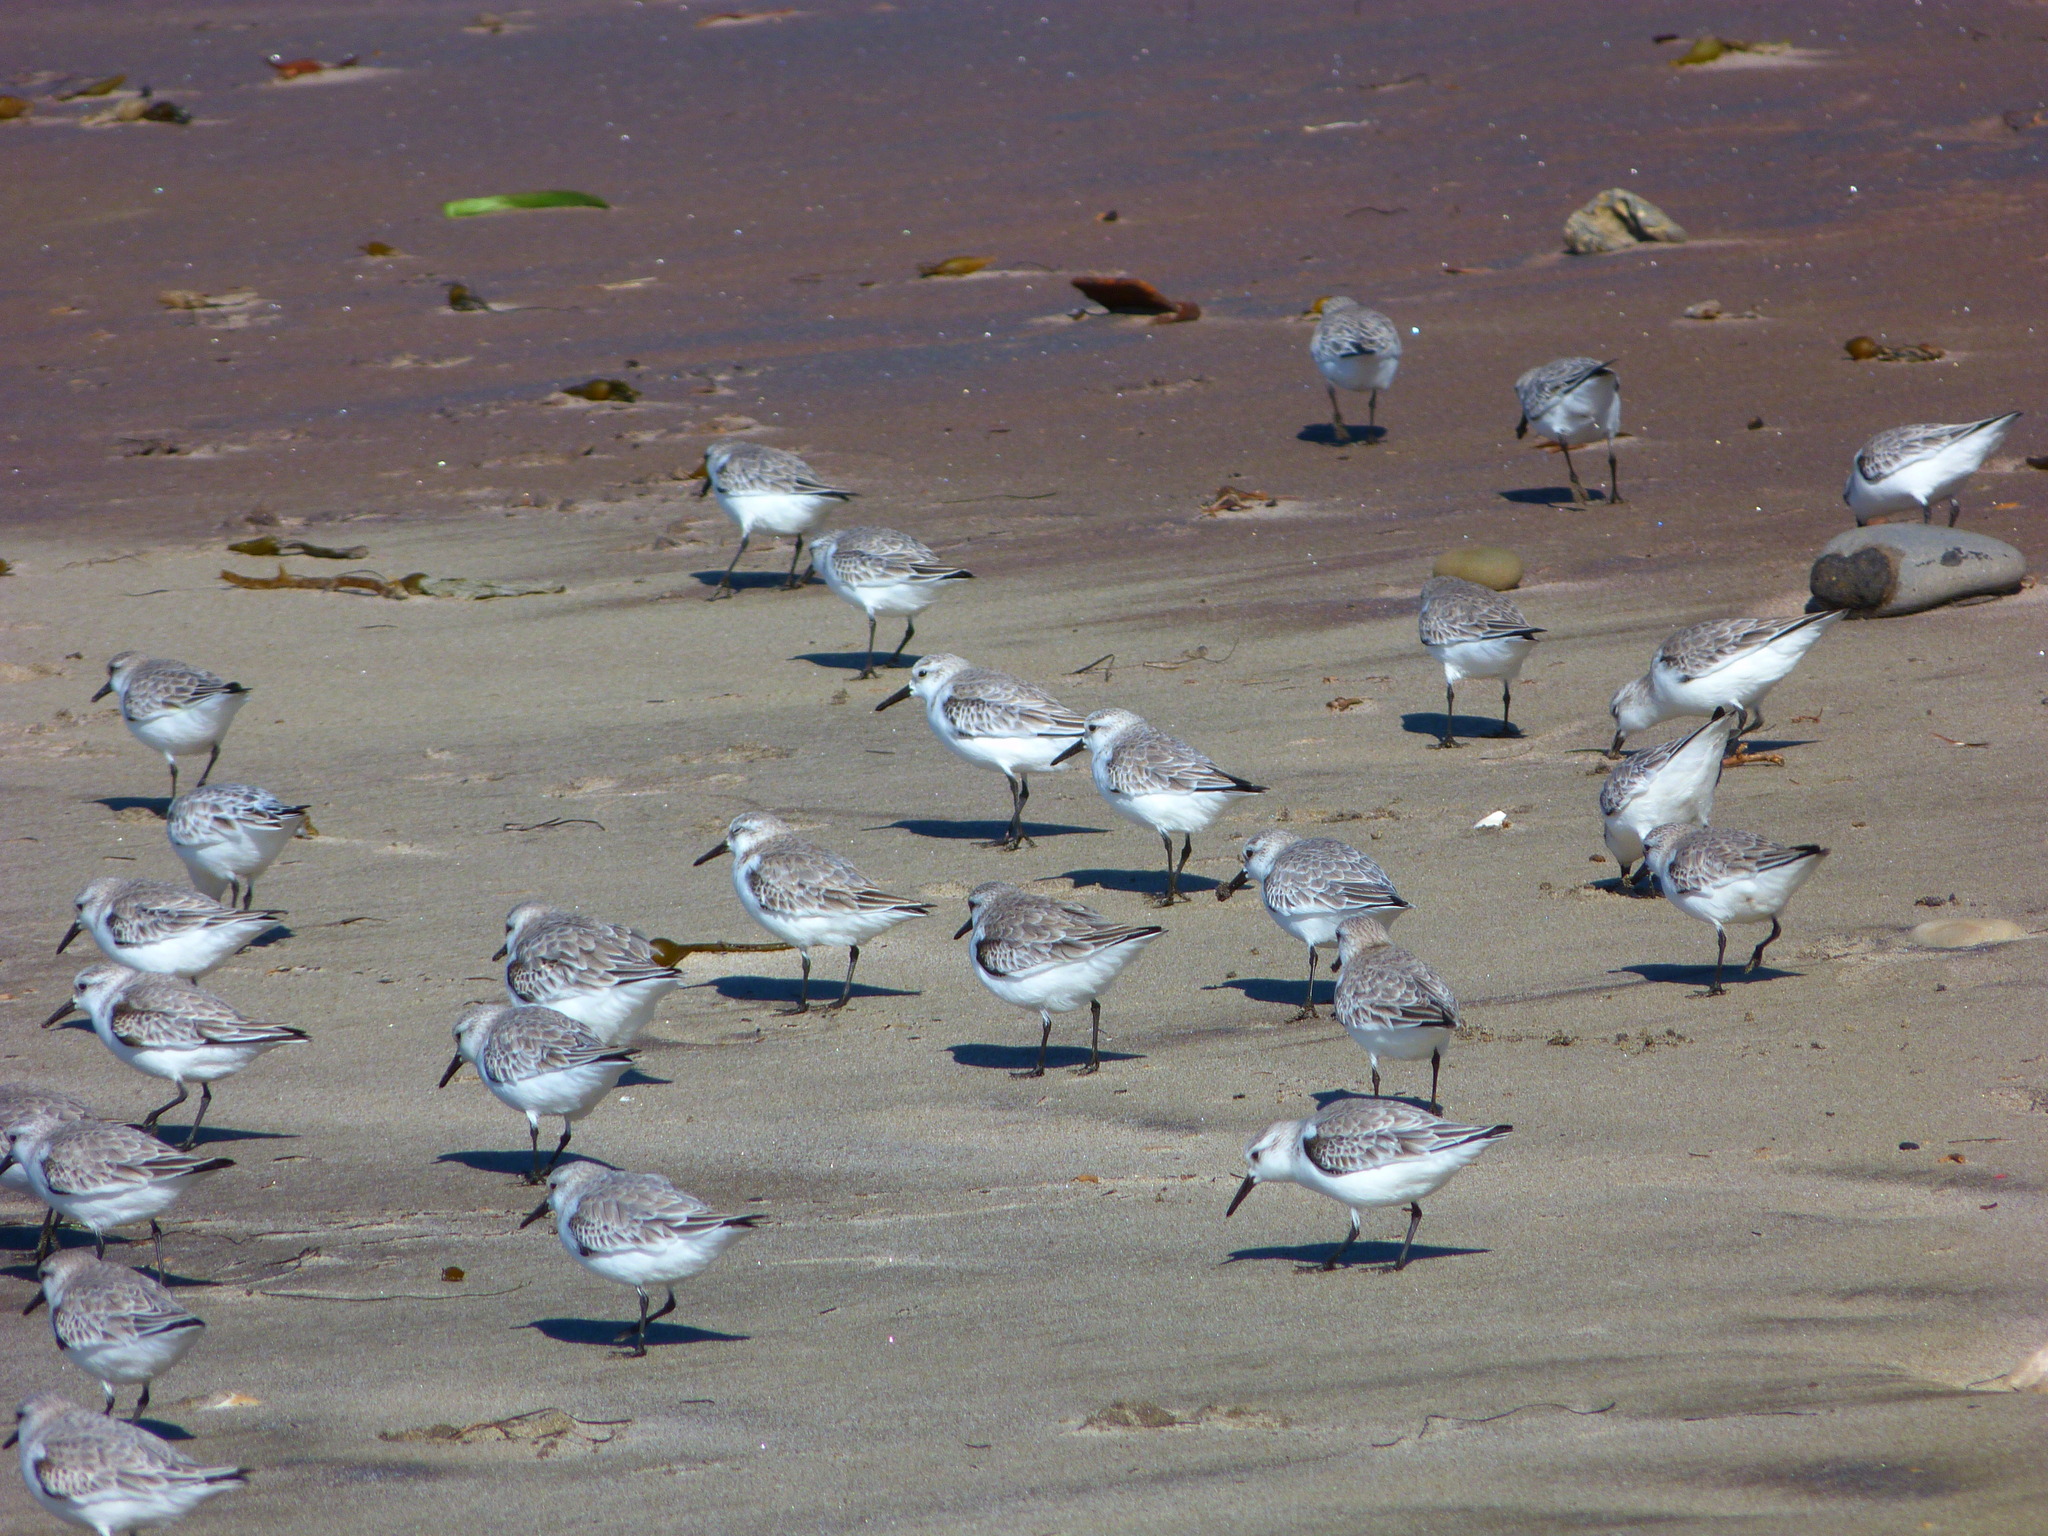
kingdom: Animalia
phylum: Chordata
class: Aves
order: Charadriiformes
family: Scolopacidae
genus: Calidris
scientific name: Calidris alba
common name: Sanderling
